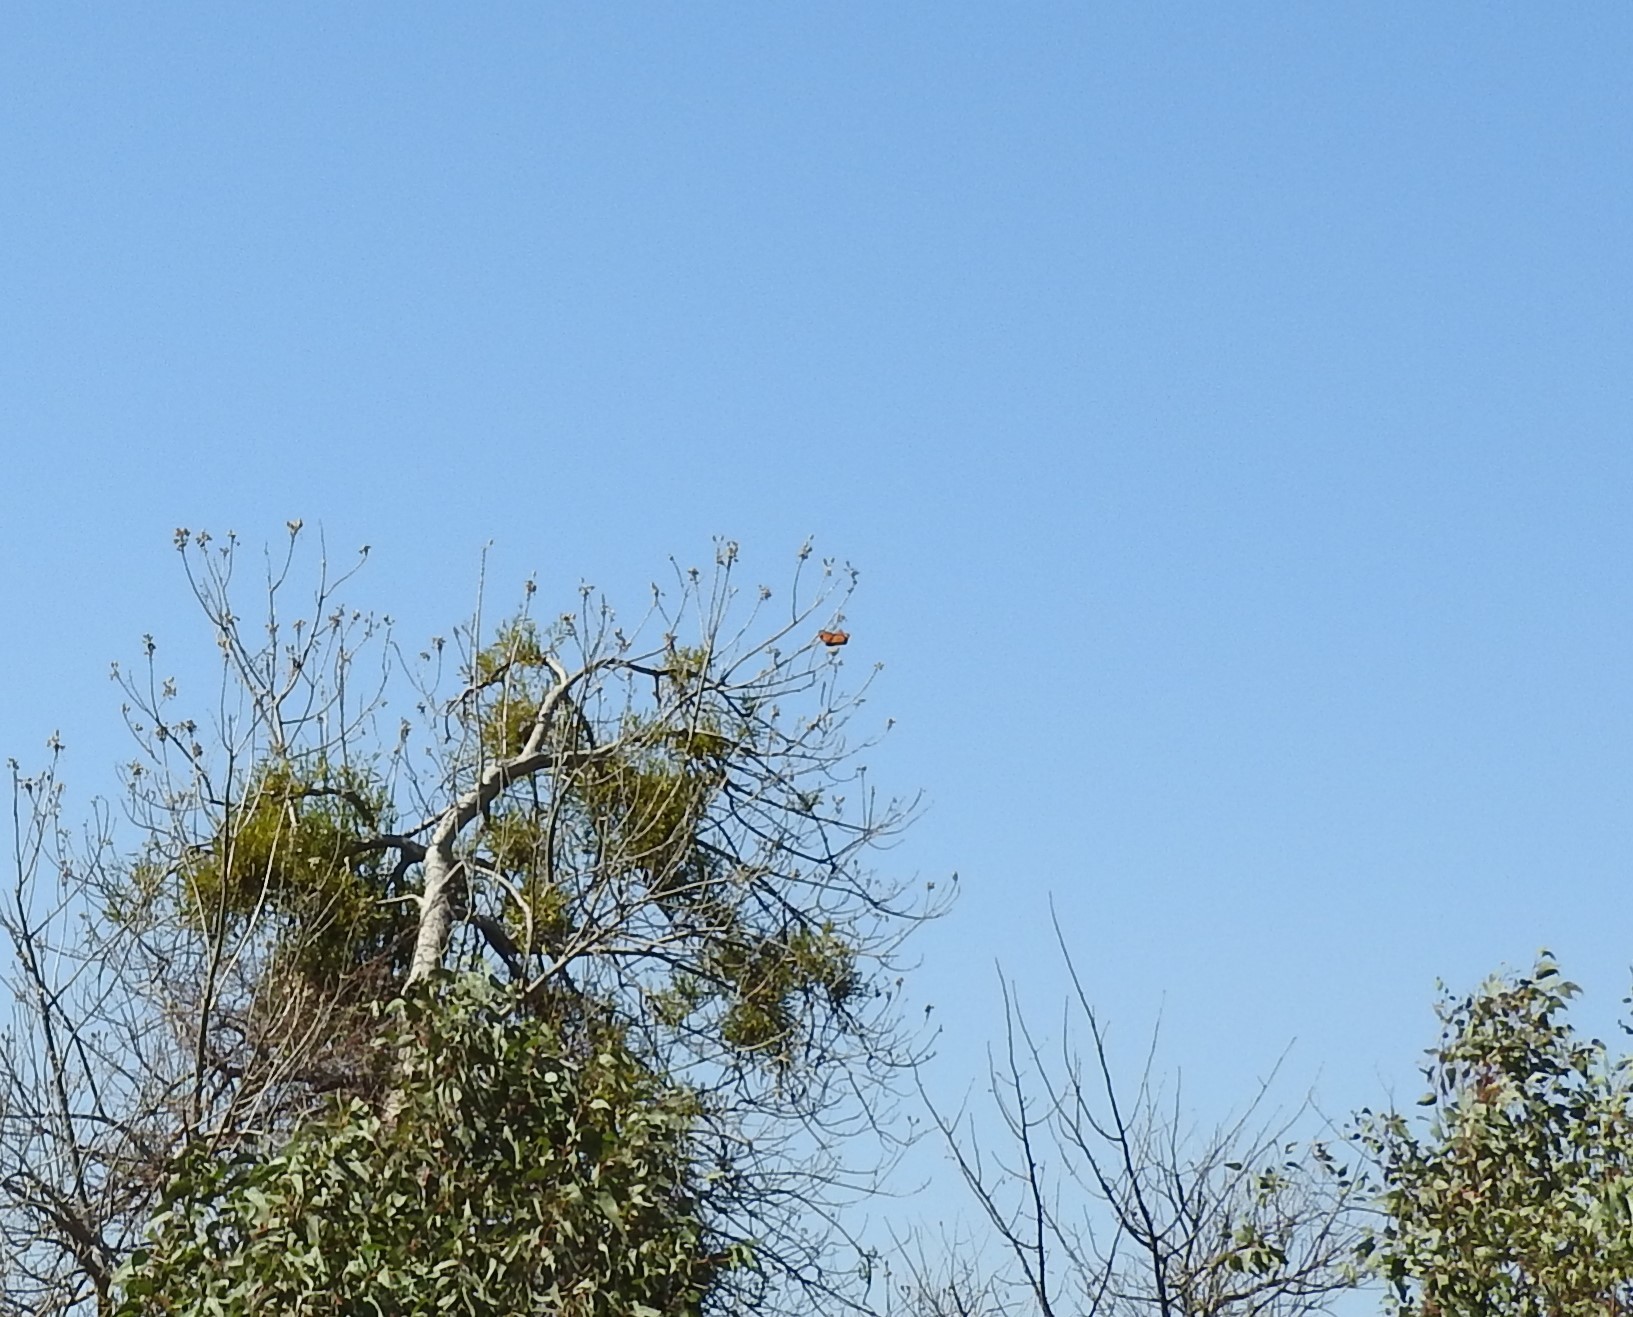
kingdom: Animalia
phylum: Arthropoda
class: Insecta
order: Lepidoptera
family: Nymphalidae
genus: Danaus
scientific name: Danaus plexippus
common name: Monarch
